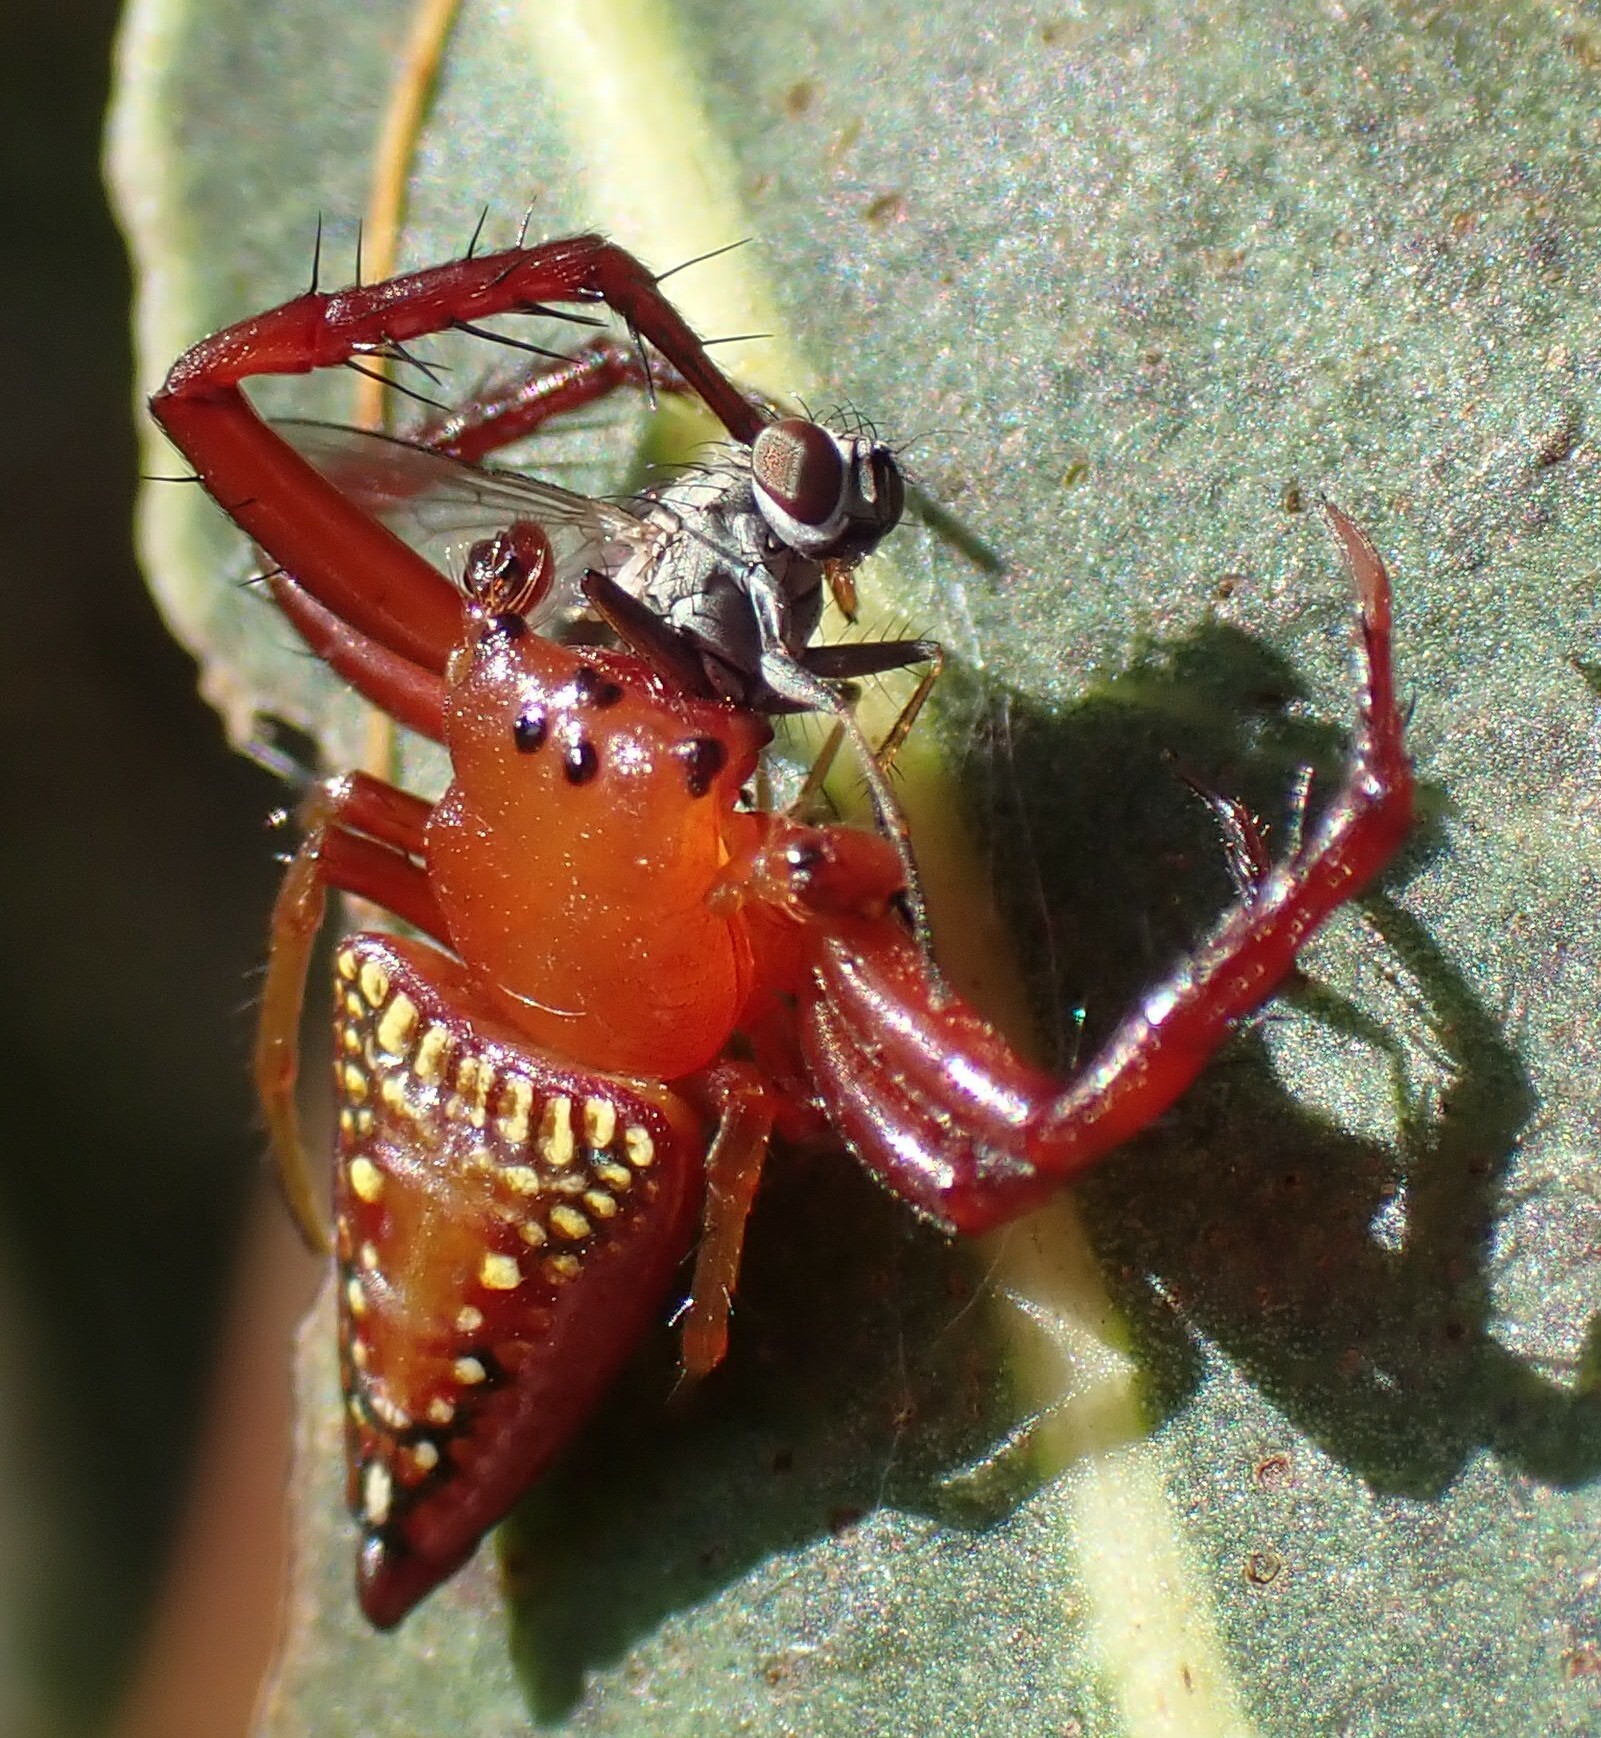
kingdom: Animalia
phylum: Arthropoda
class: Arachnida
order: Araneae
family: Arkyidae
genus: Arkys
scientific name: Arkys walckenaeri
